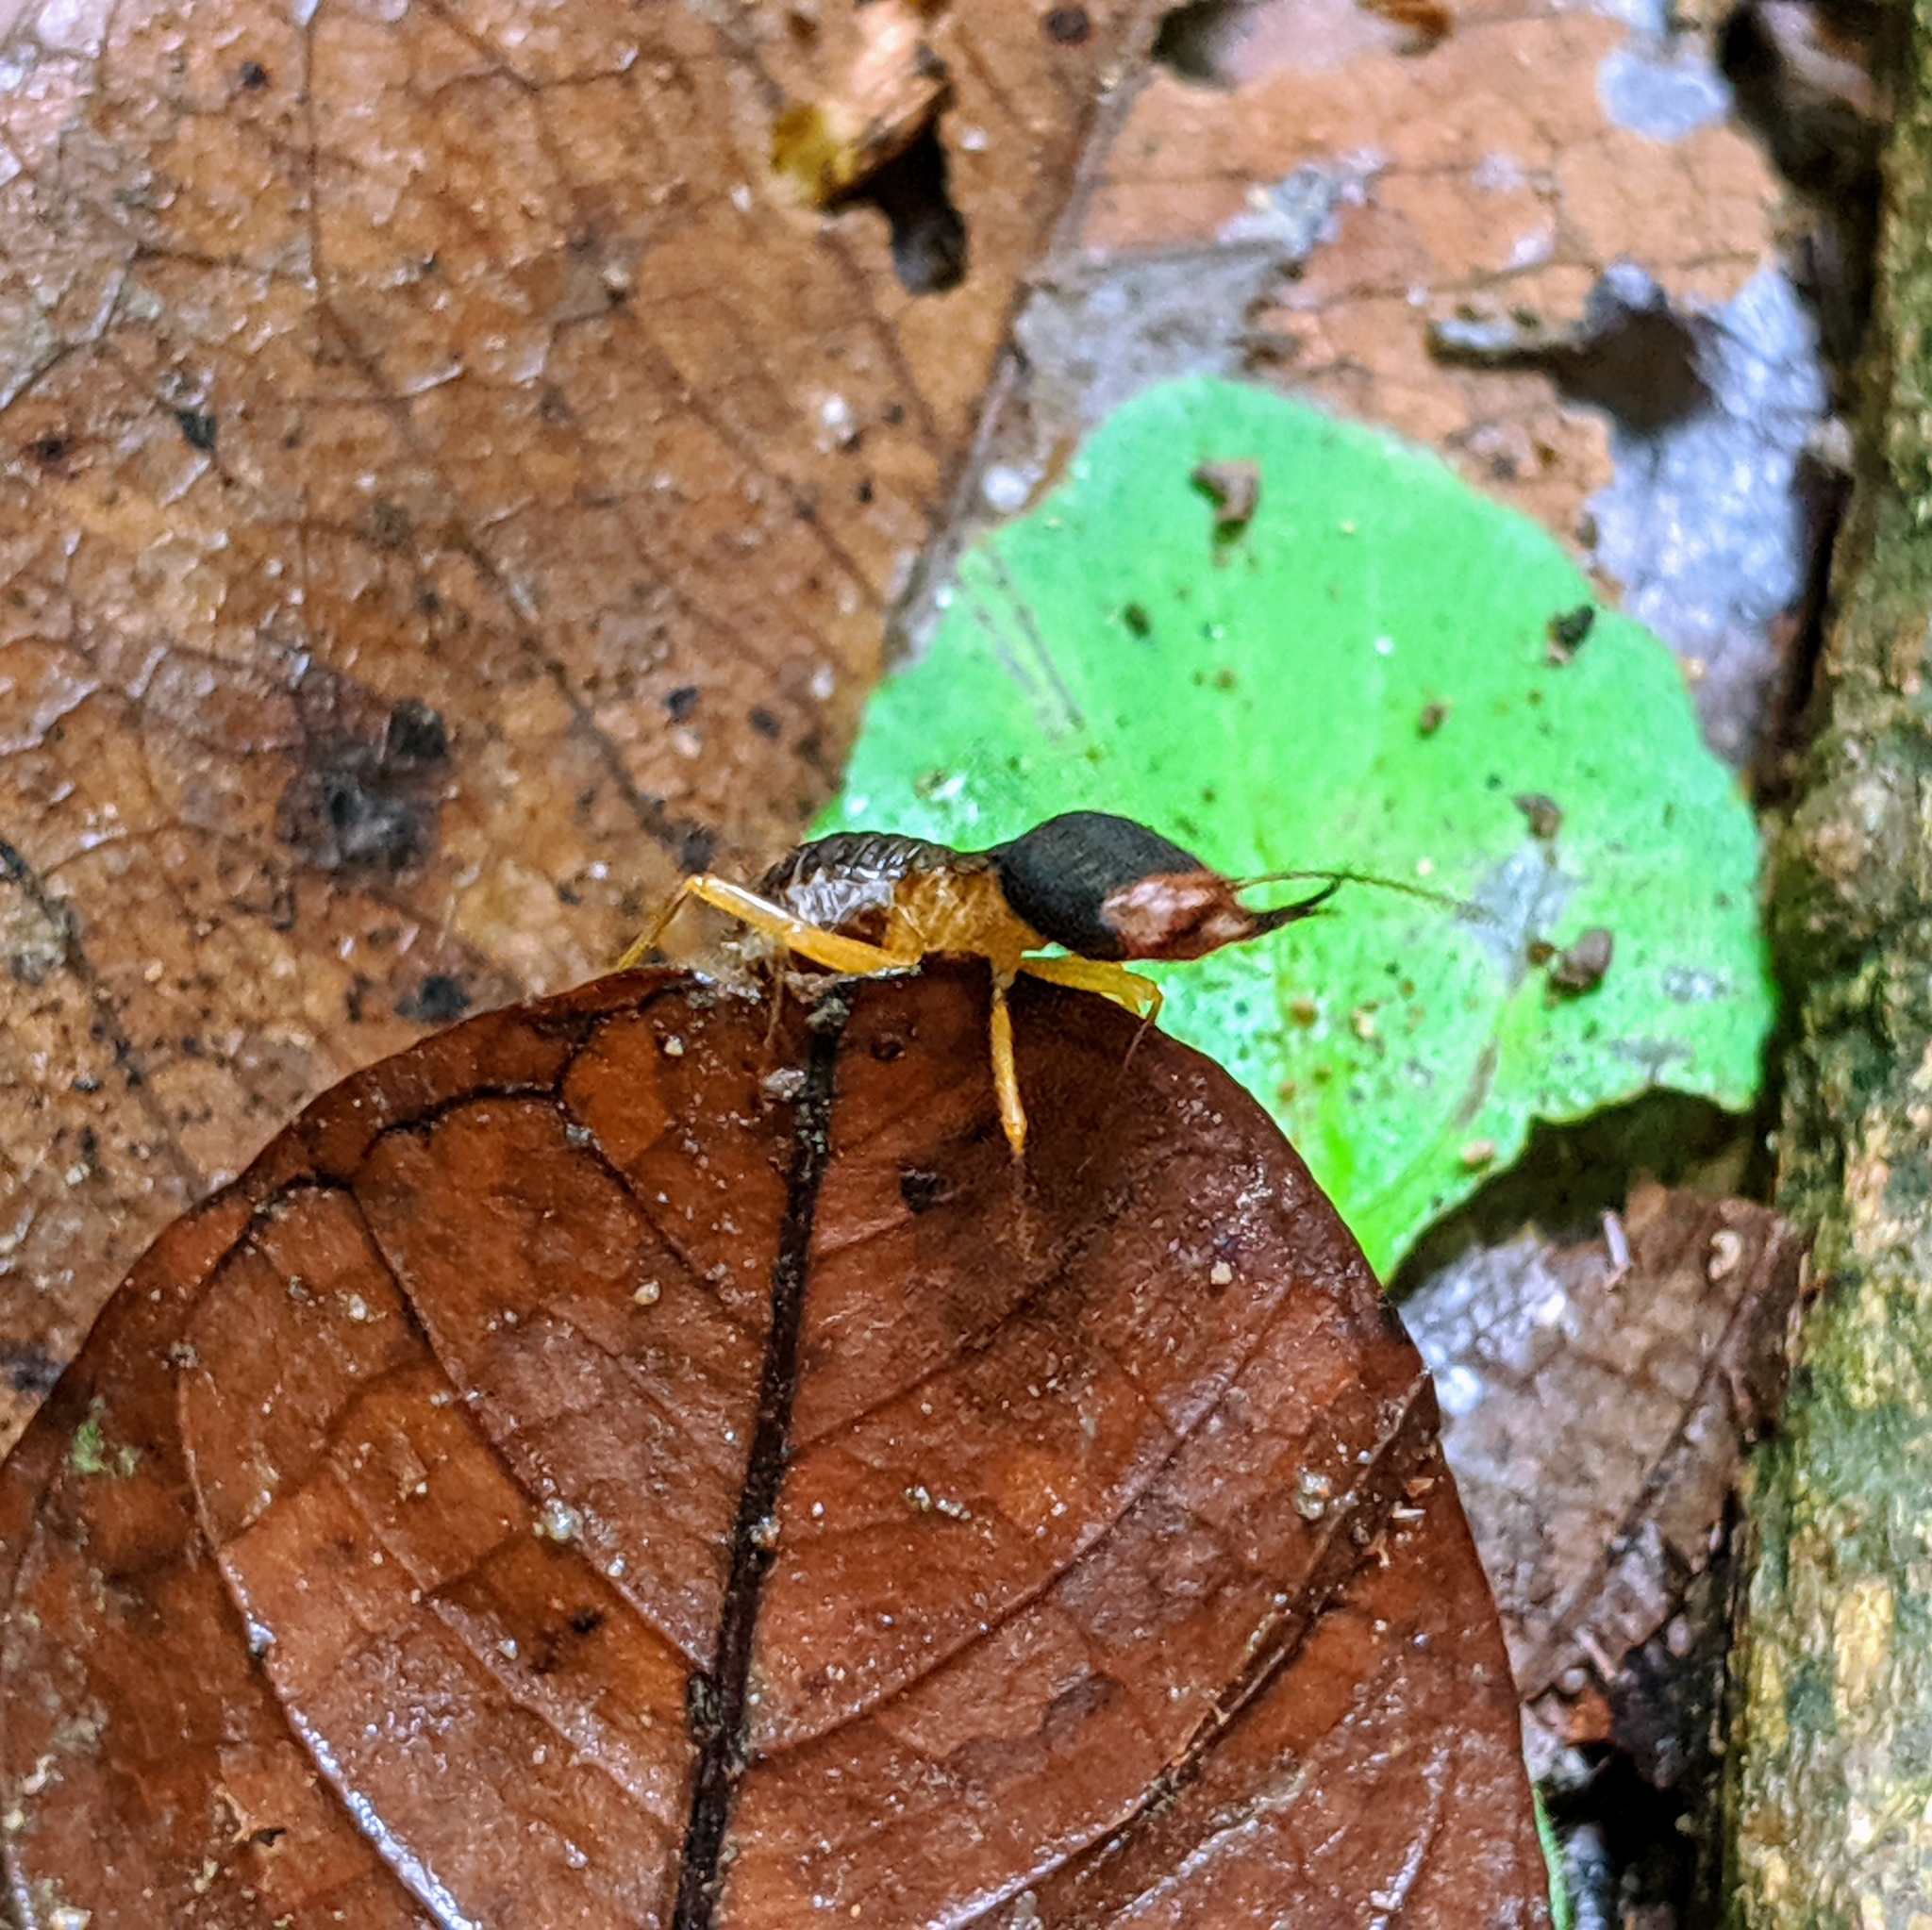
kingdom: Animalia
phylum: Arthropoda
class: Insecta
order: Blattodea
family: Termitidae
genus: Macrotermes
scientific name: Macrotermes carbonarius
